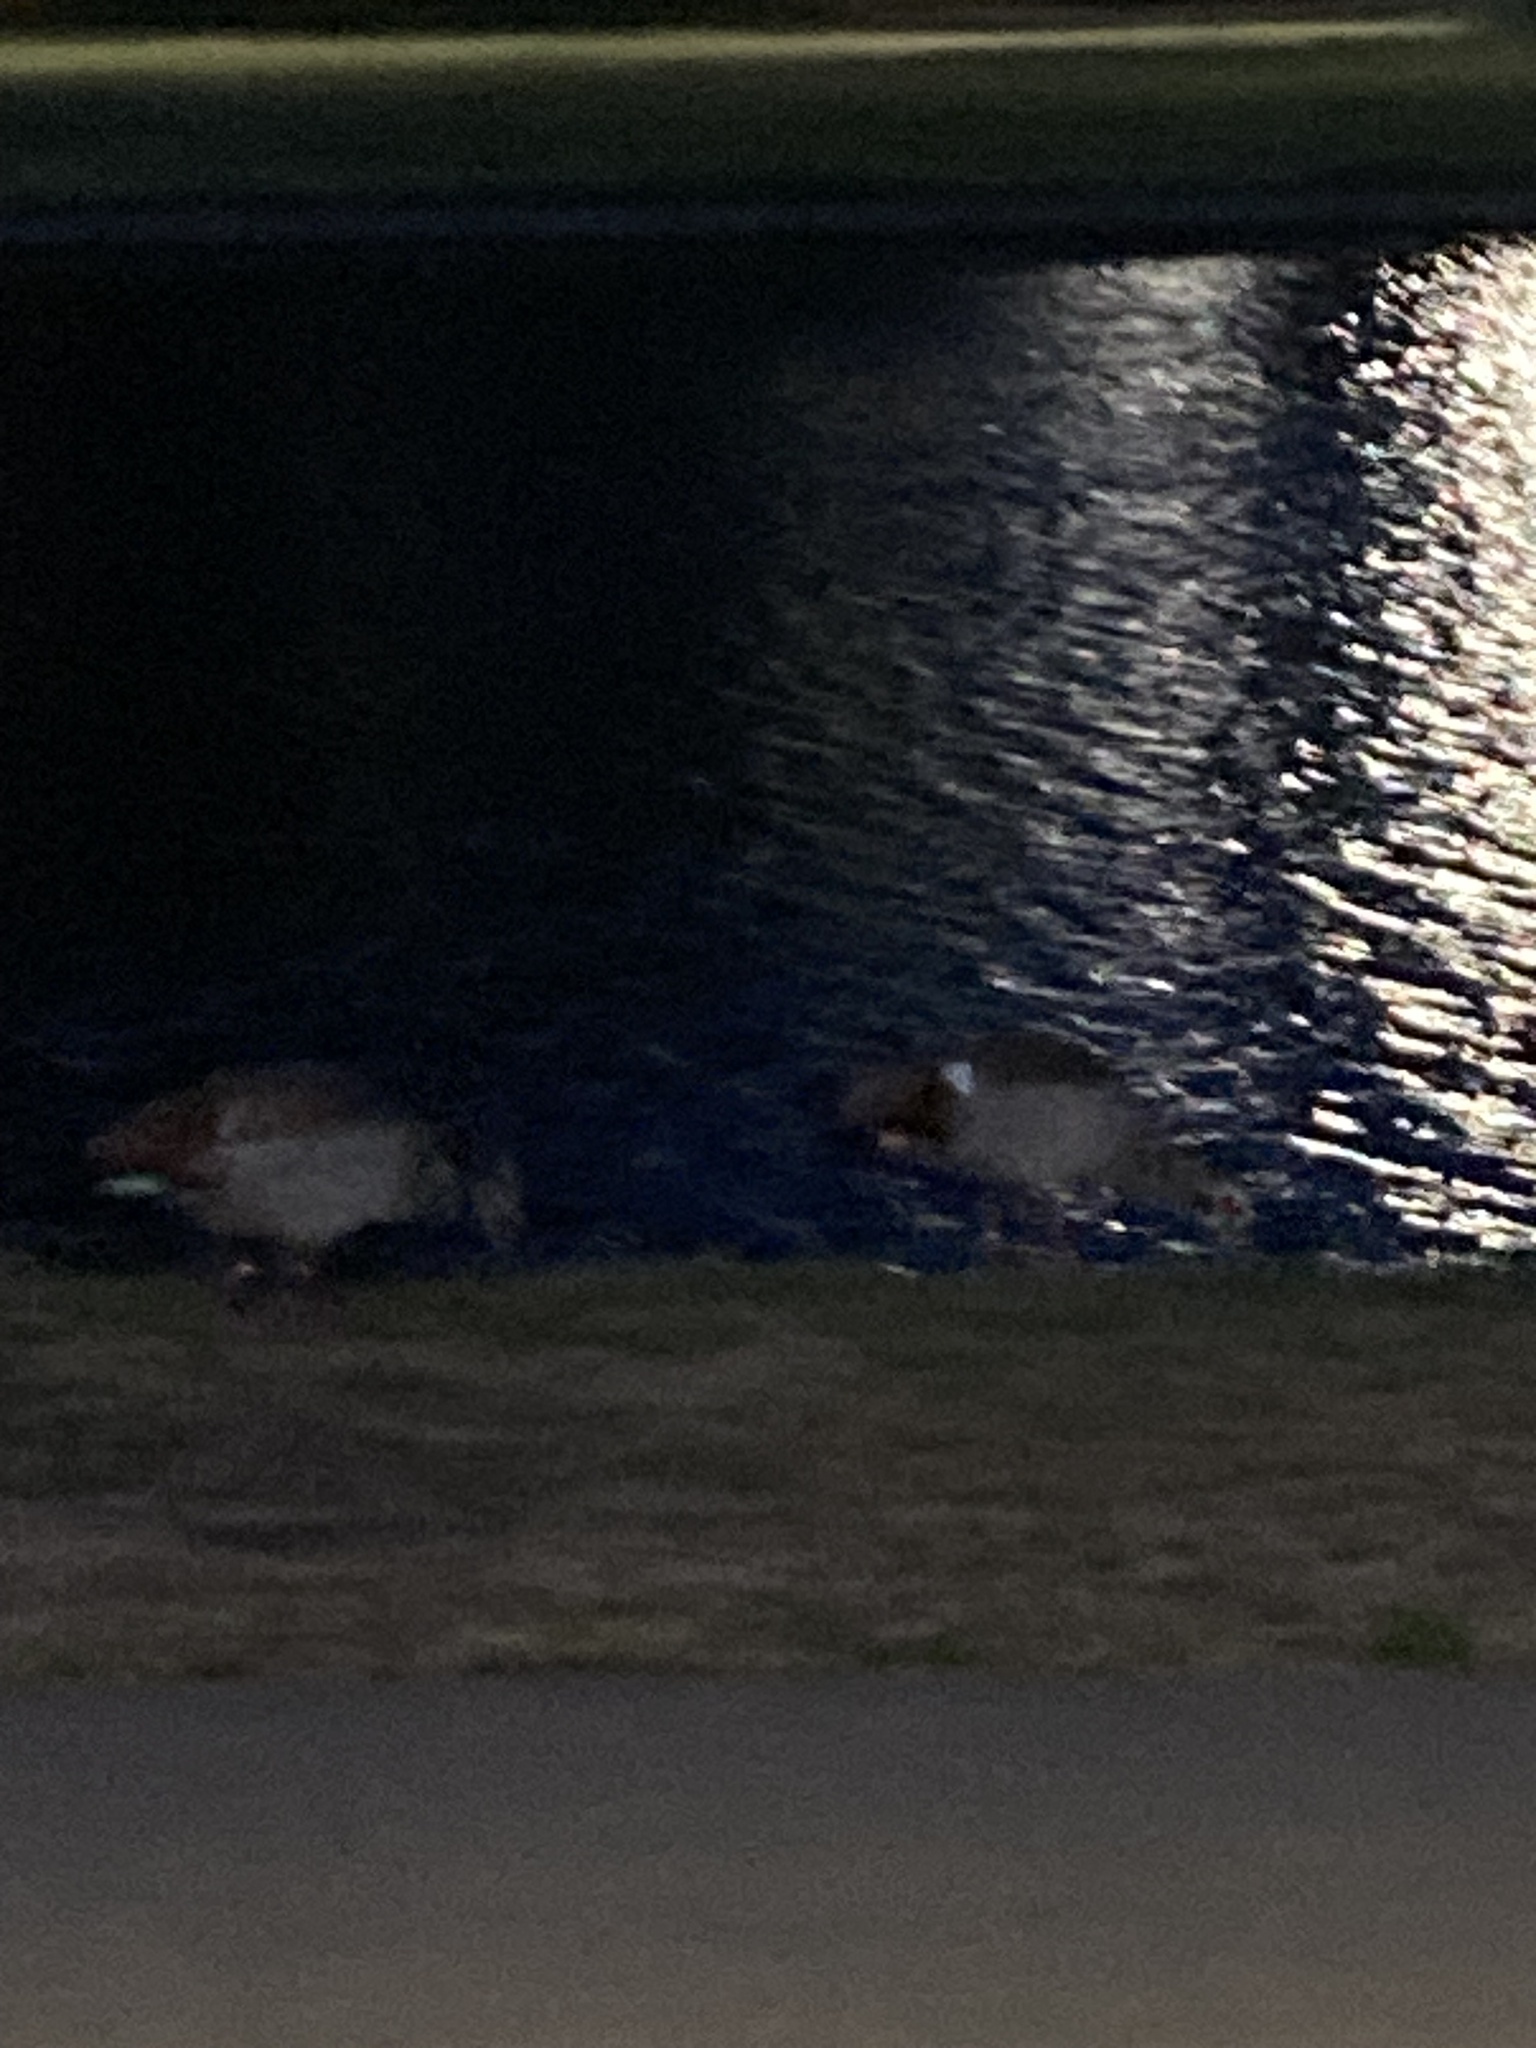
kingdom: Animalia
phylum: Chordata
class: Aves
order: Anseriformes
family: Anatidae
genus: Alopochen
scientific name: Alopochen aegyptiaca
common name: Egyptian goose
